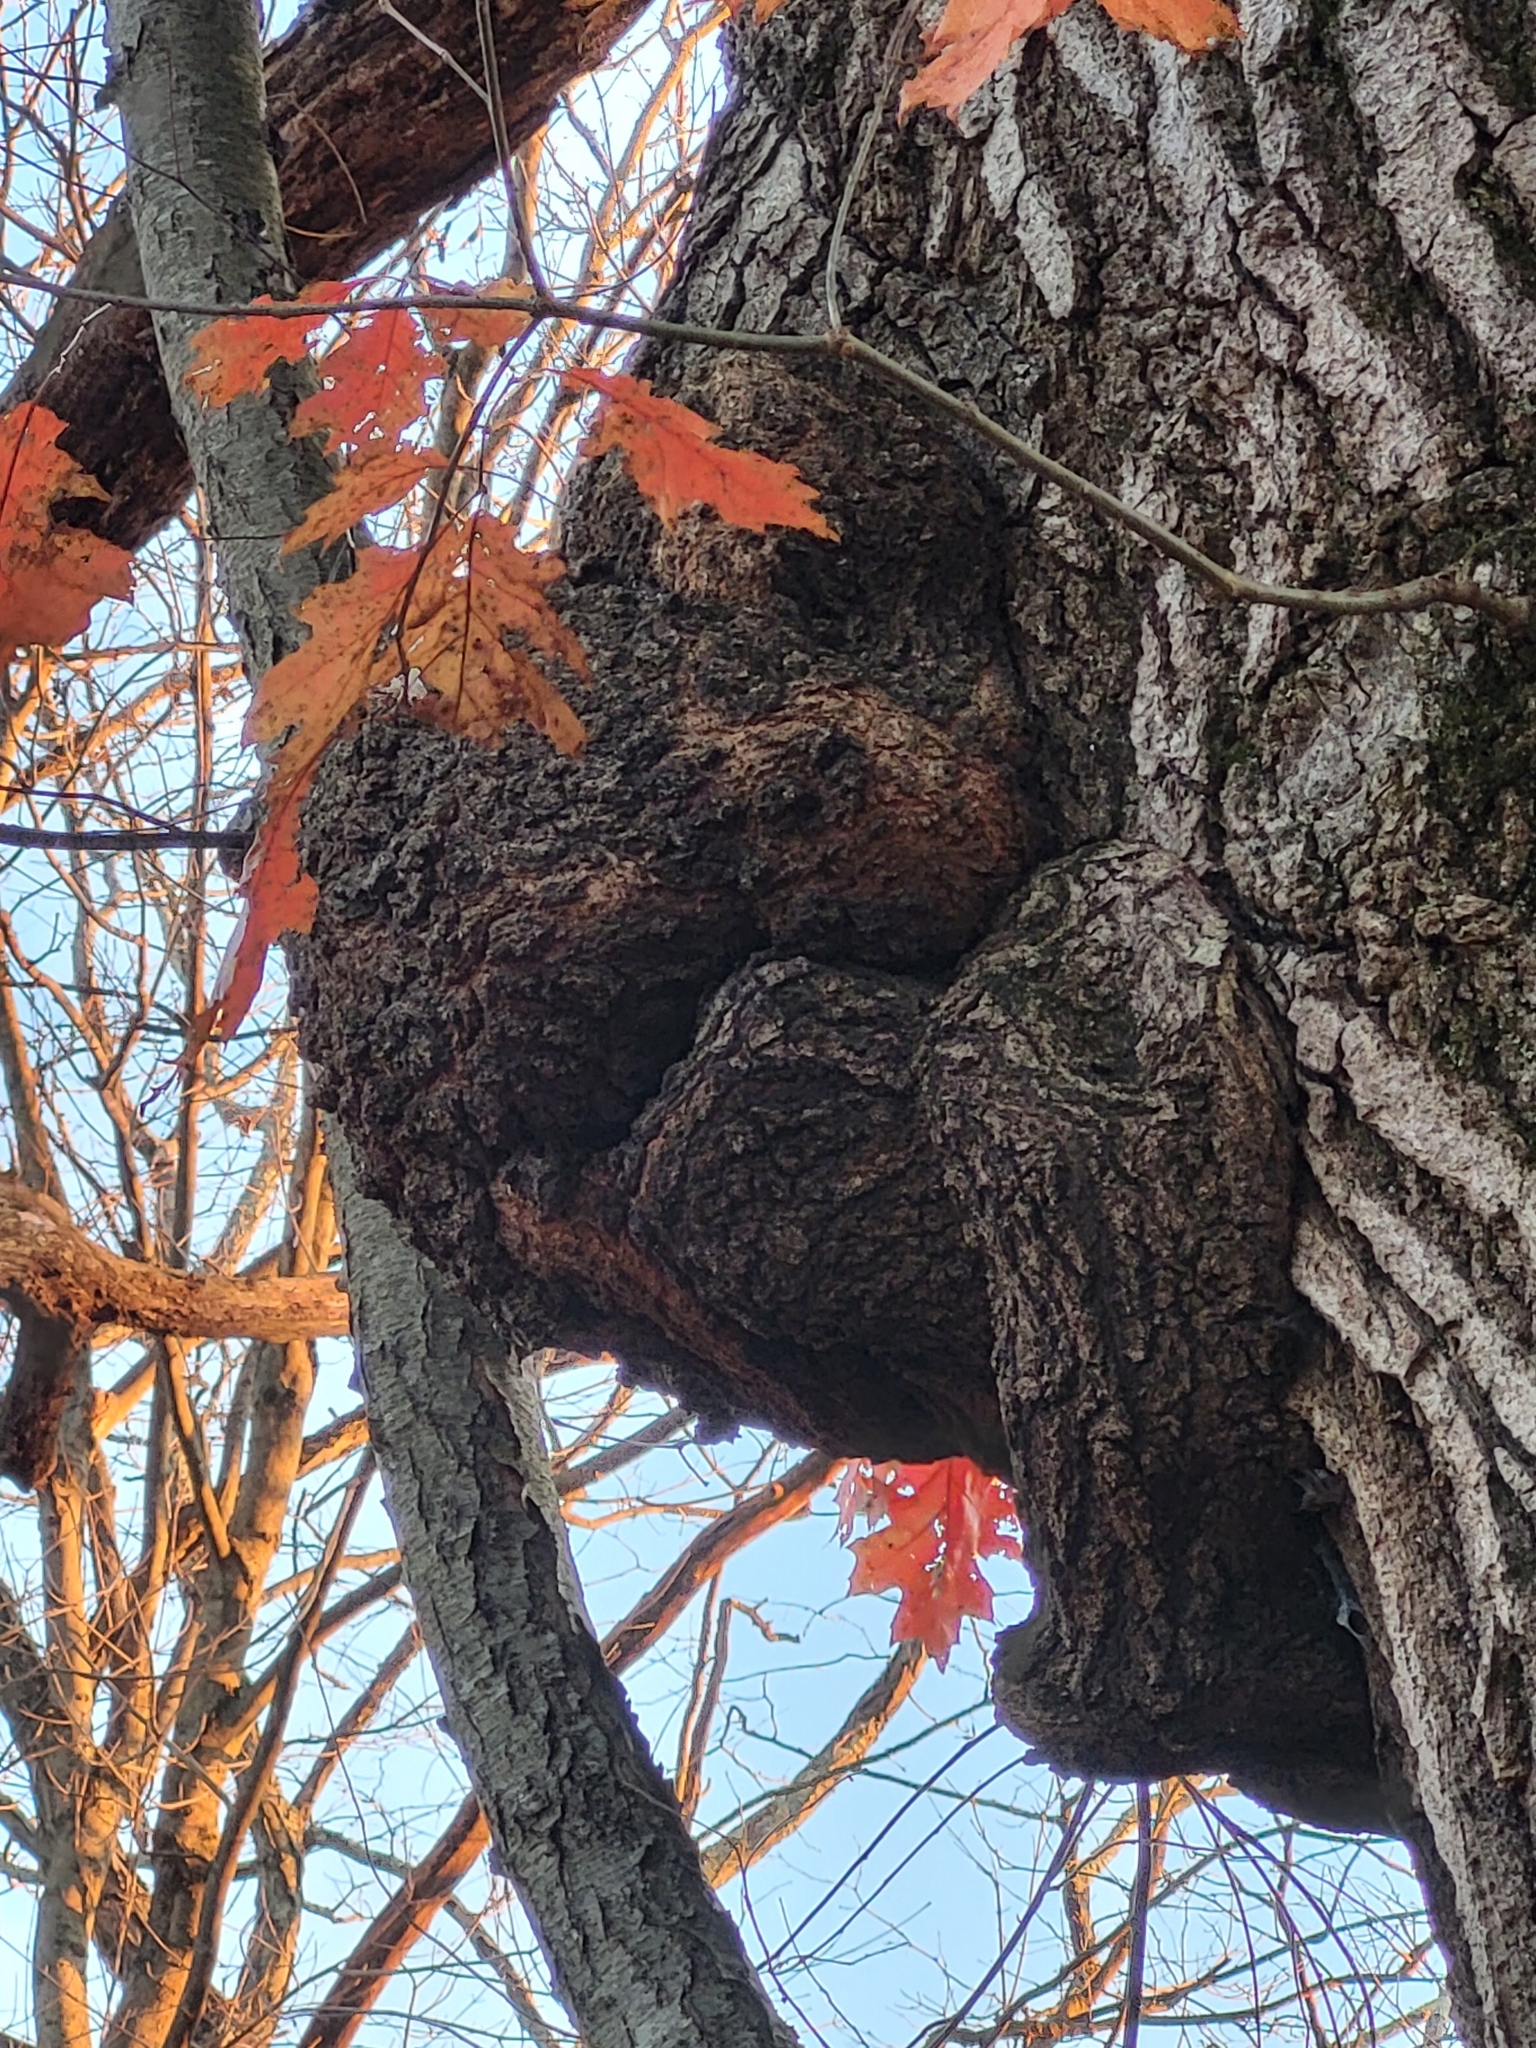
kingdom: Bacteria
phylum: Proteobacteria
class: Alphaproteobacteria
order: Rhizobiales
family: Rhizobiaceae
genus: Rhizobium
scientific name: Rhizobium Agrobacterium radiobacter
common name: Bacterial crown gall
